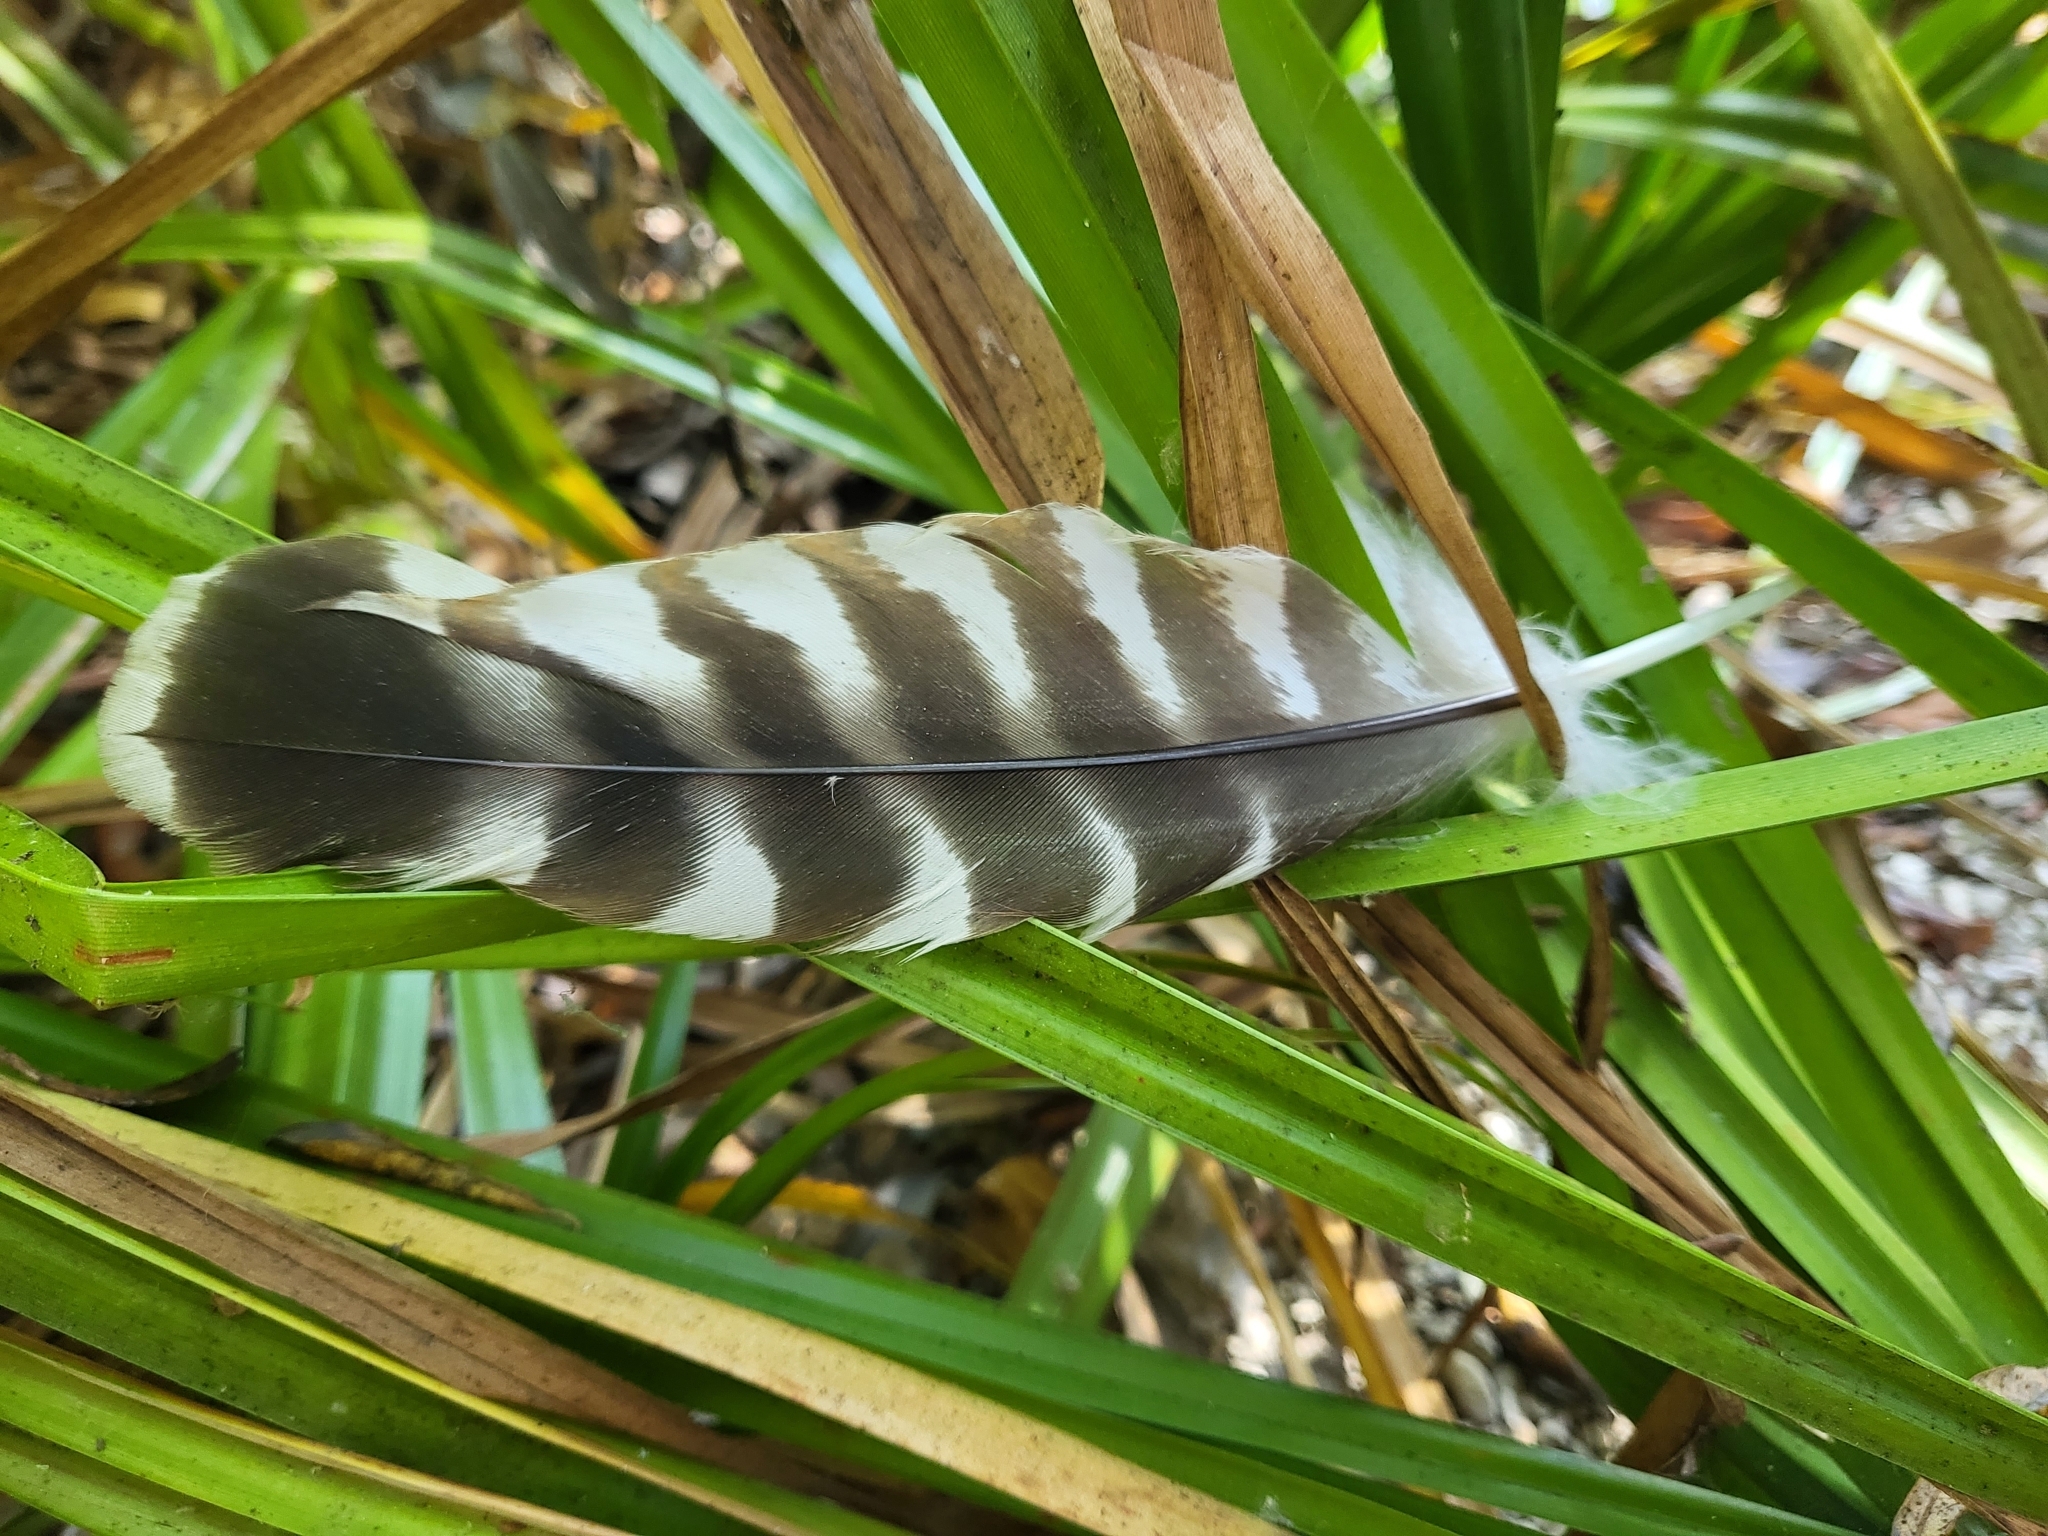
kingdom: Animalia
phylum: Chordata
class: Aves
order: Accipitriformes
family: Accipitridae
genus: Buteo
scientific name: Buteo lineatus
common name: Red-shouldered hawk
